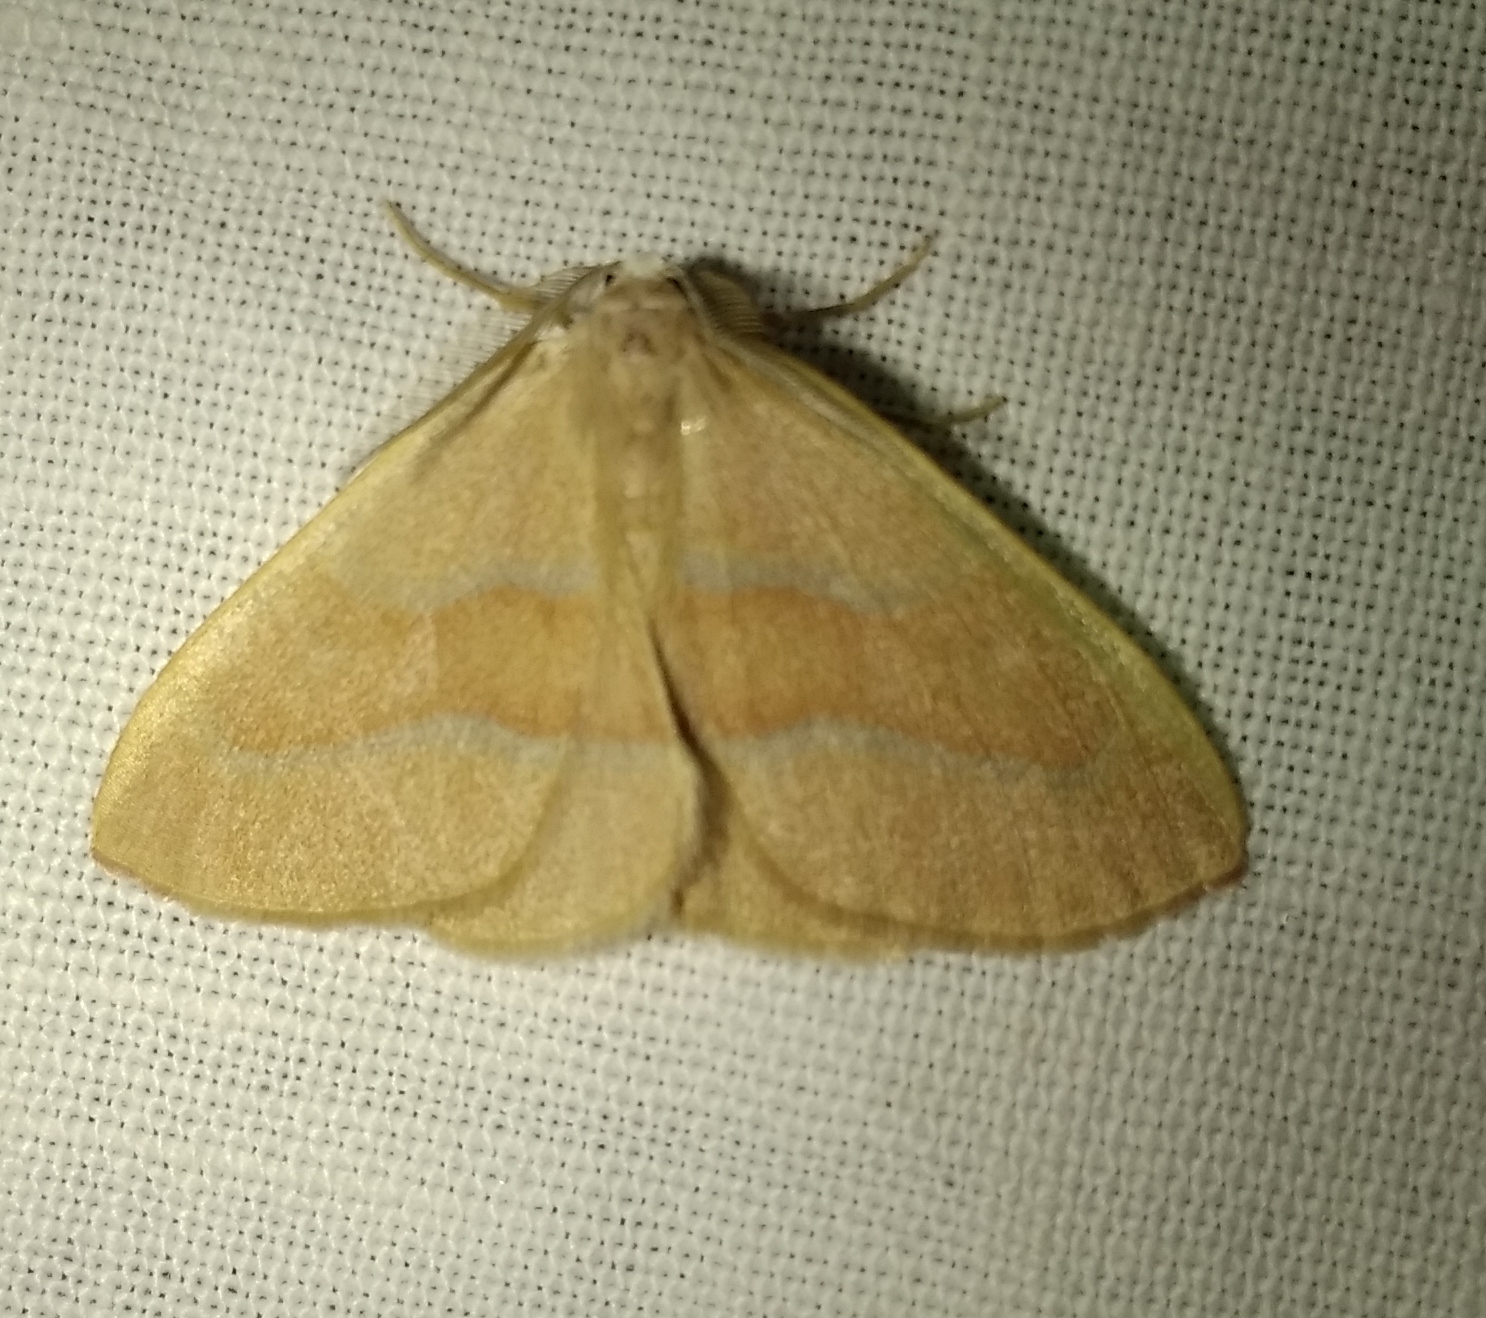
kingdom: Animalia
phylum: Arthropoda
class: Insecta
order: Lepidoptera
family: Geometridae
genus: Hylaea
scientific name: Hylaea fasciaria
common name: Barred red
